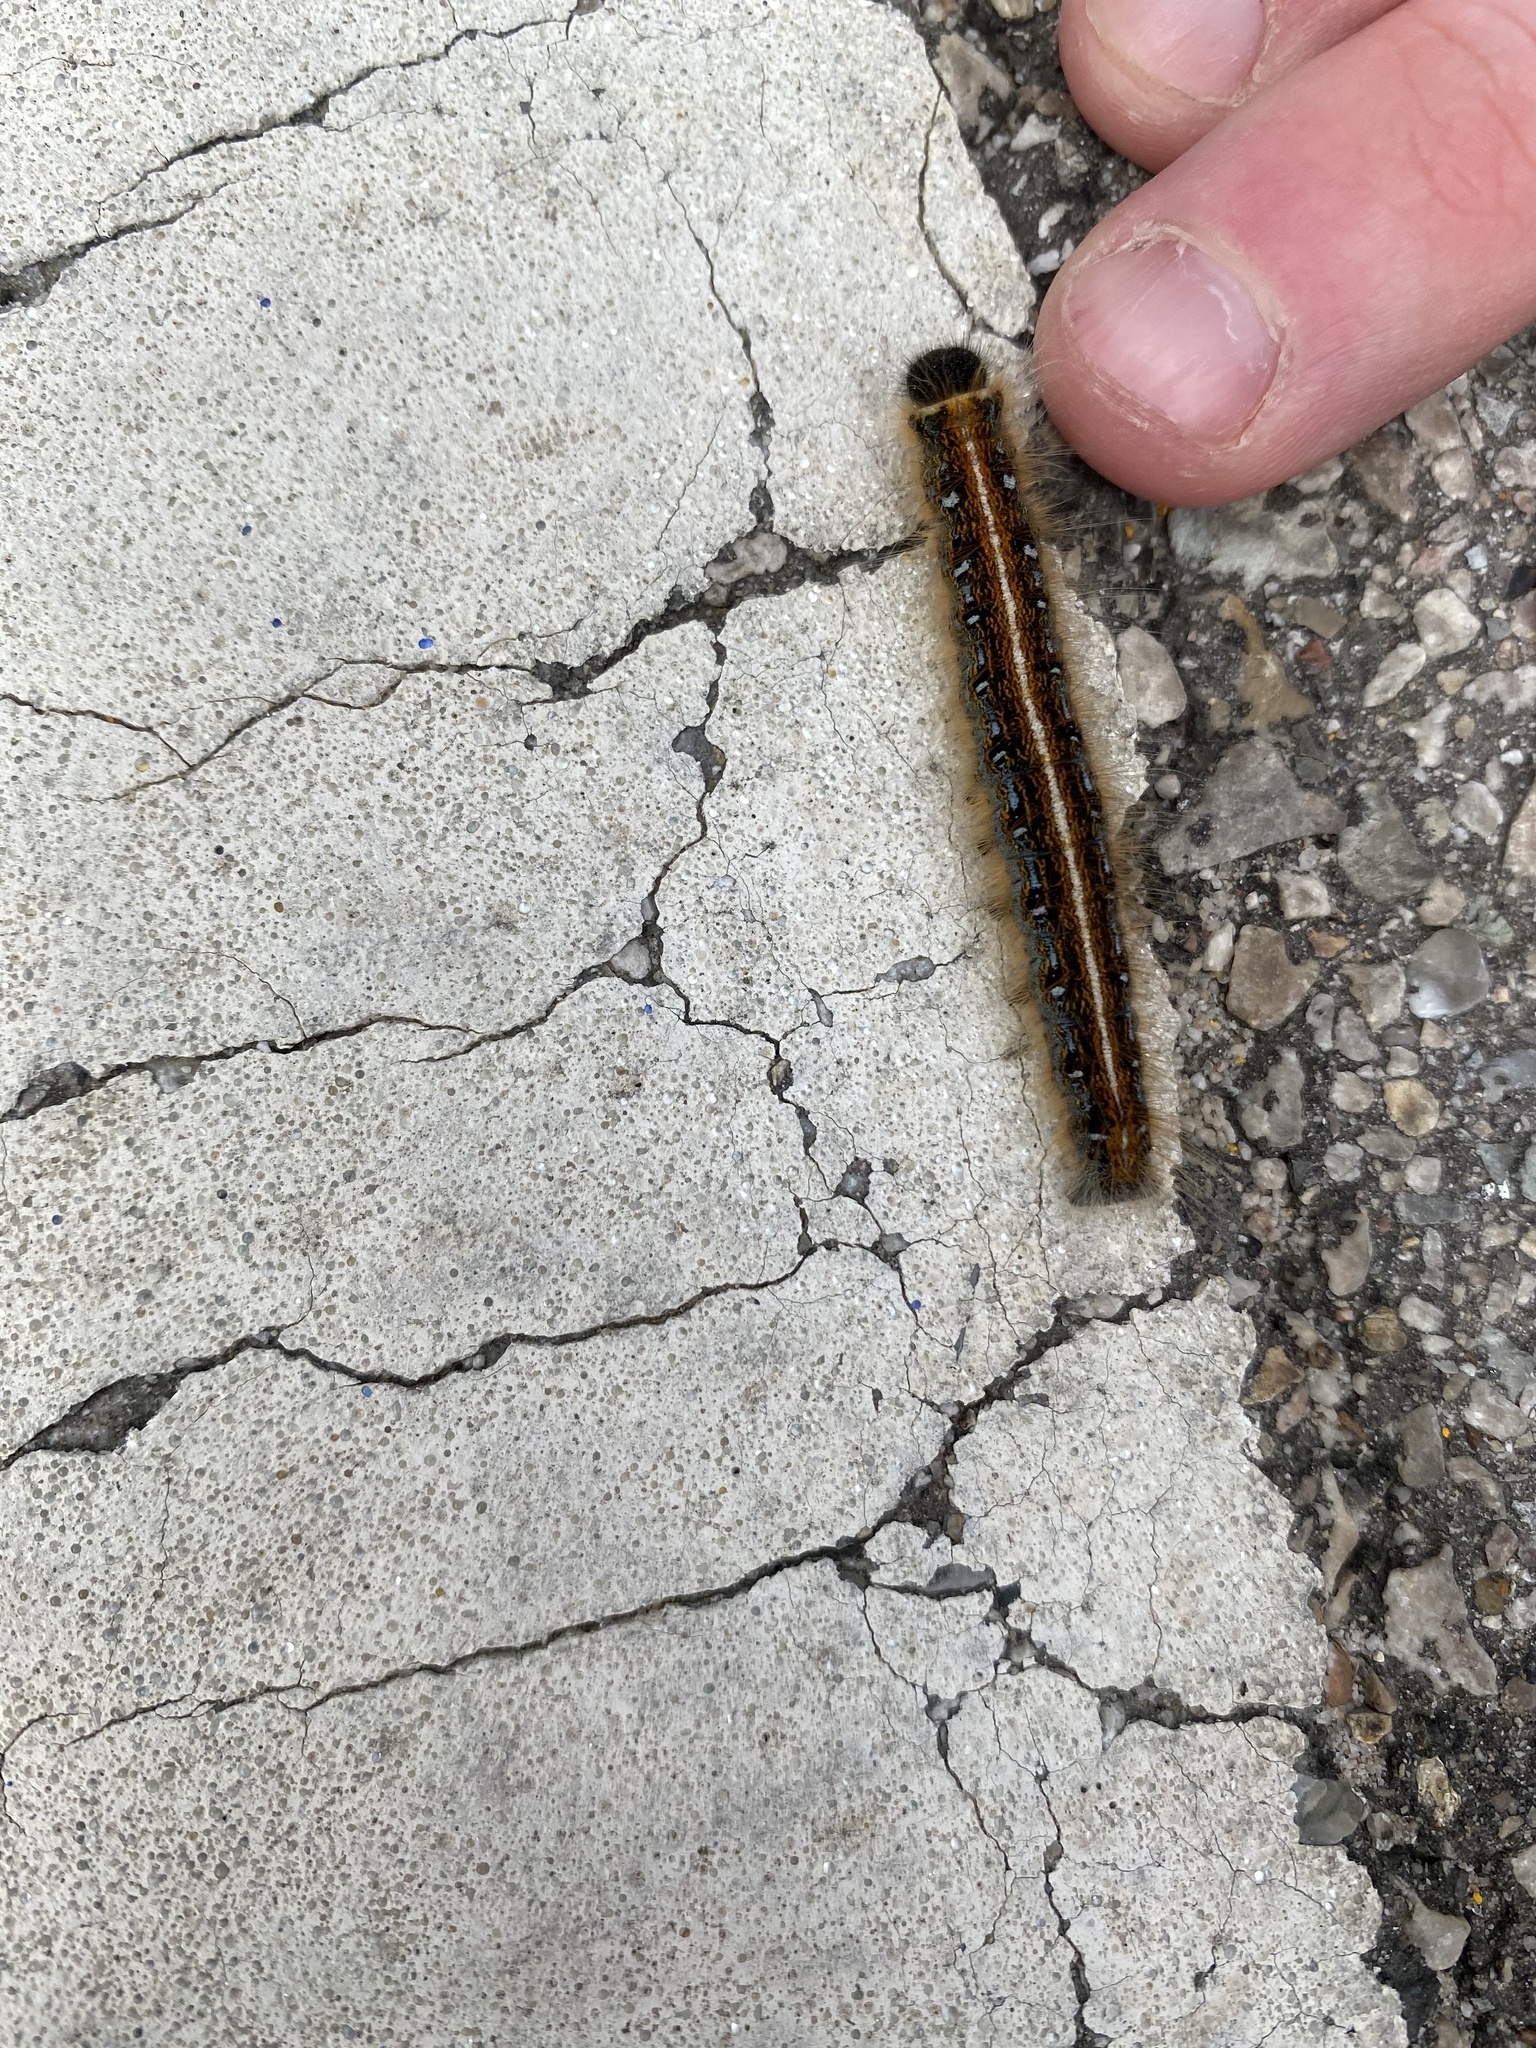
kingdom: Animalia
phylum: Arthropoda
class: Insecta
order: Lepidoptera
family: Lasiocampidae
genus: Malacosoma
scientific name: Malacosoma americana
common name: Eastern tent caterpillar moth
